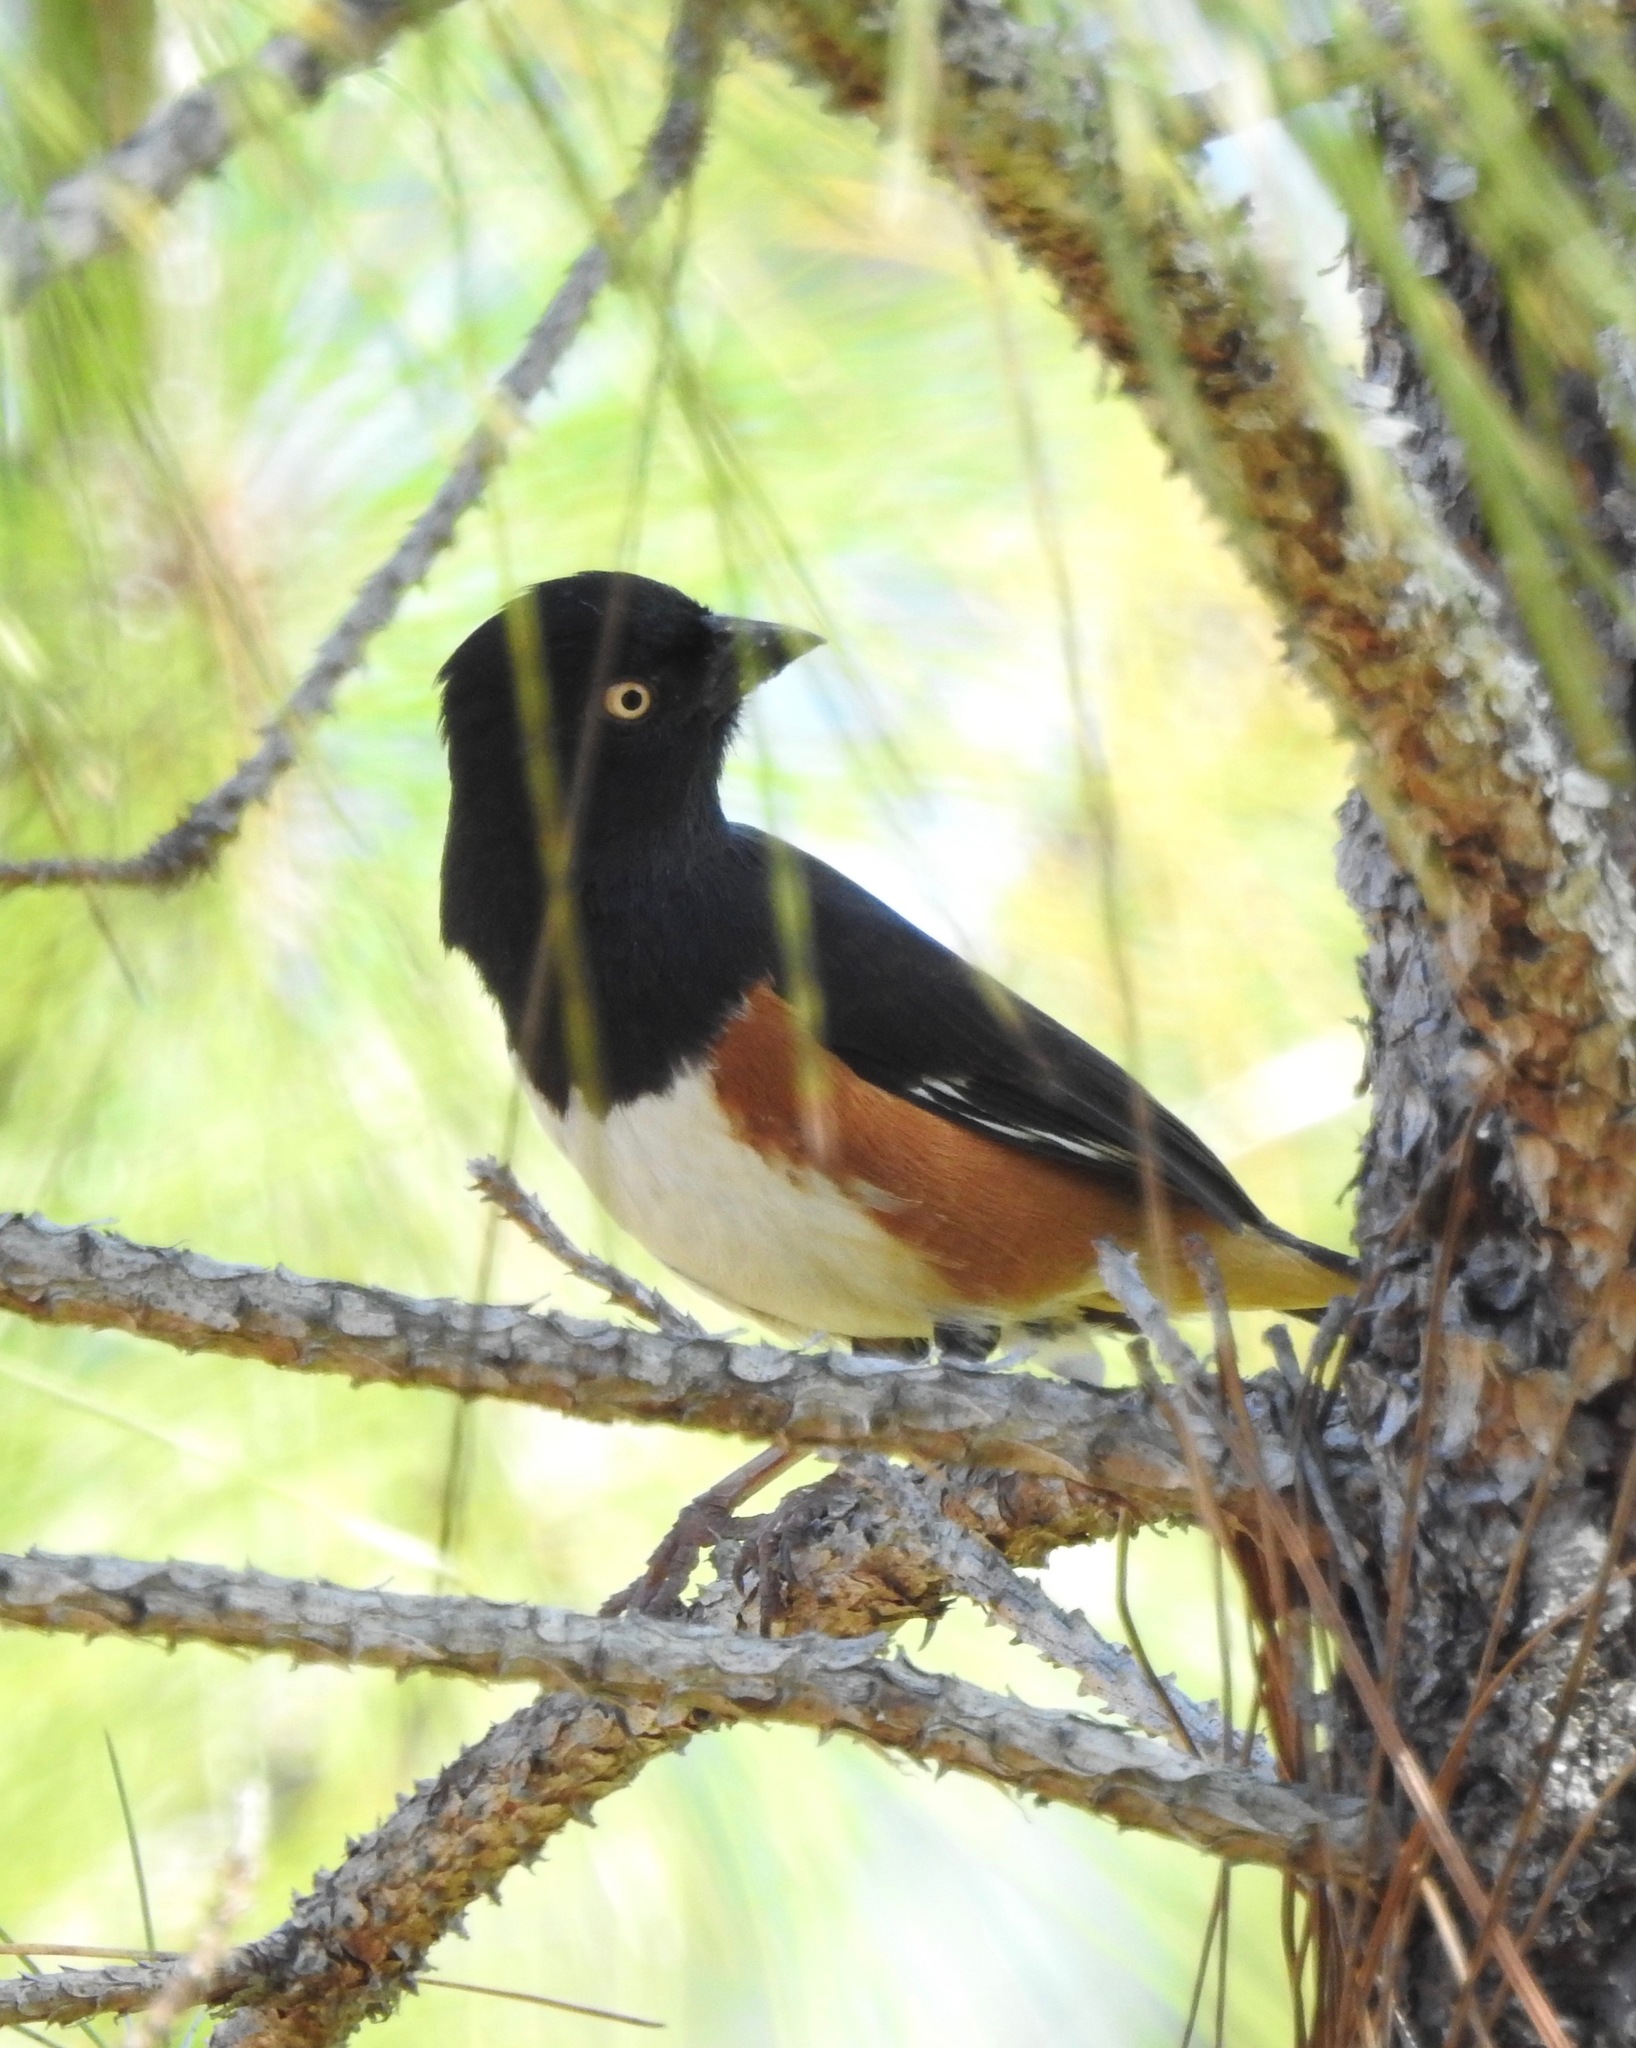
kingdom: Animalia
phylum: Chordata
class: Aves
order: Passeriformes
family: Passerellidae
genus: Pipilo
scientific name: Pipilo erythrophthalmus
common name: Eastern towhee
